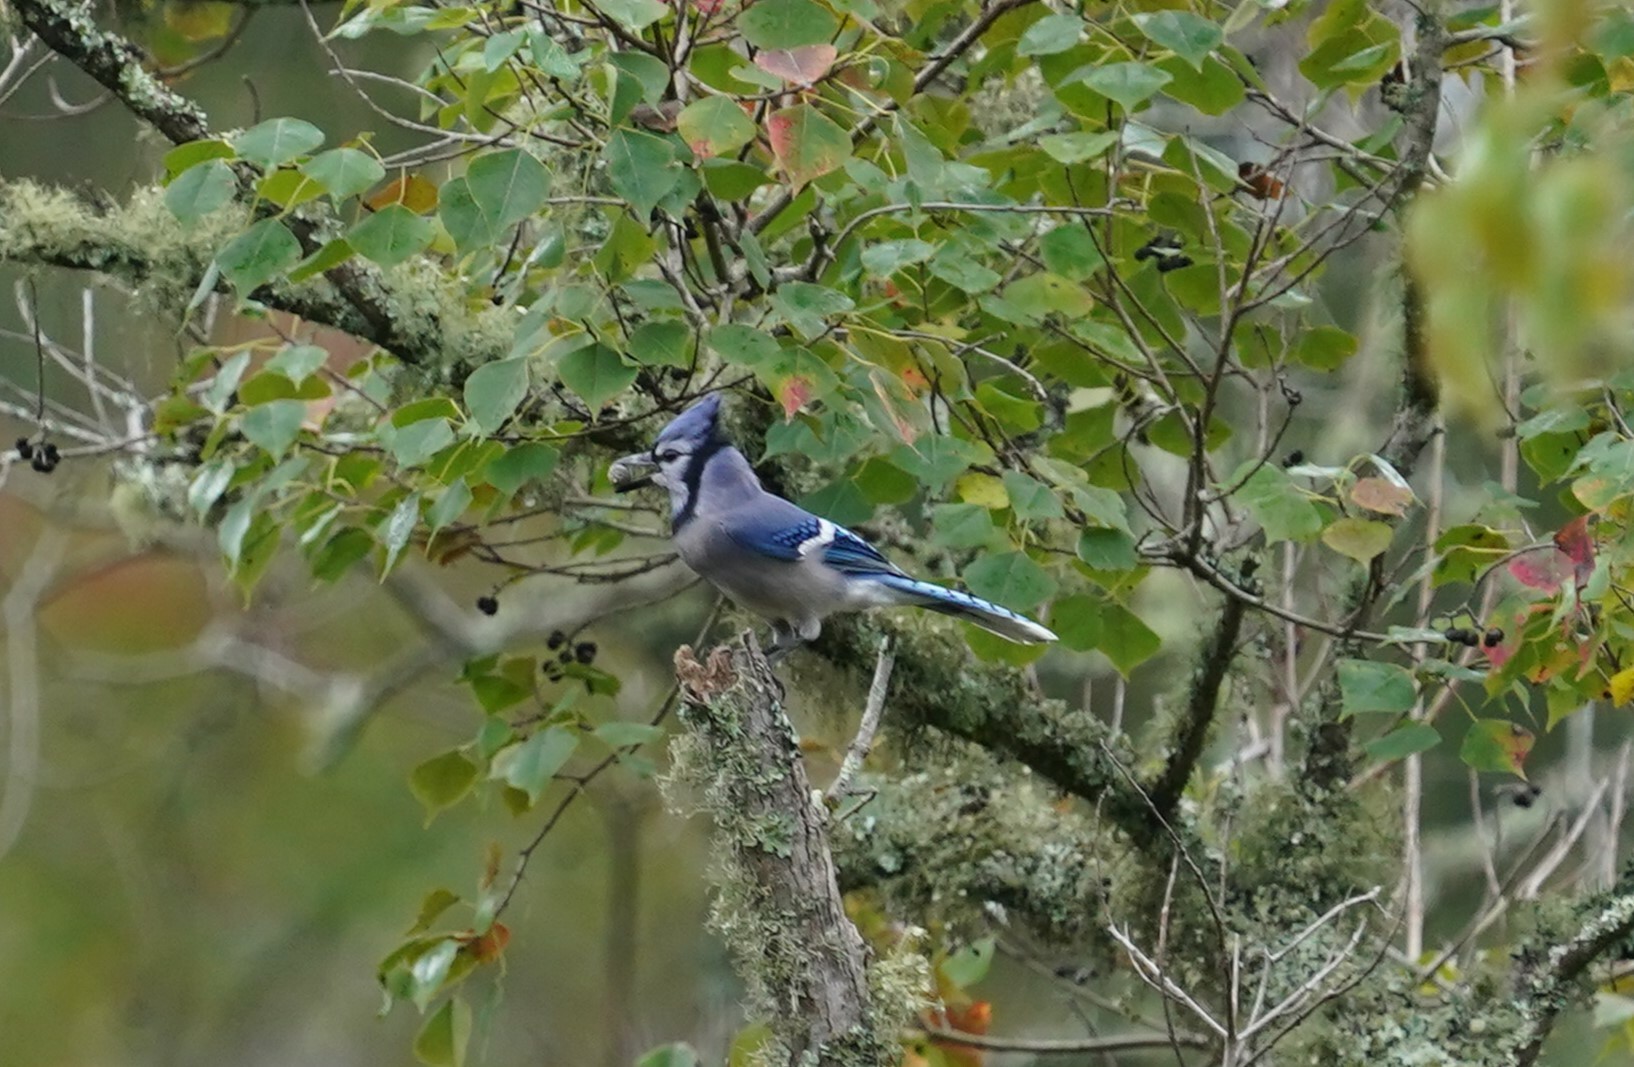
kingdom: Animalia
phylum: Chordata
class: Aves
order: Passeriformes
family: Corvidae
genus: Cyanocitta
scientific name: Cyanocitta cristata
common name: Blue jay
